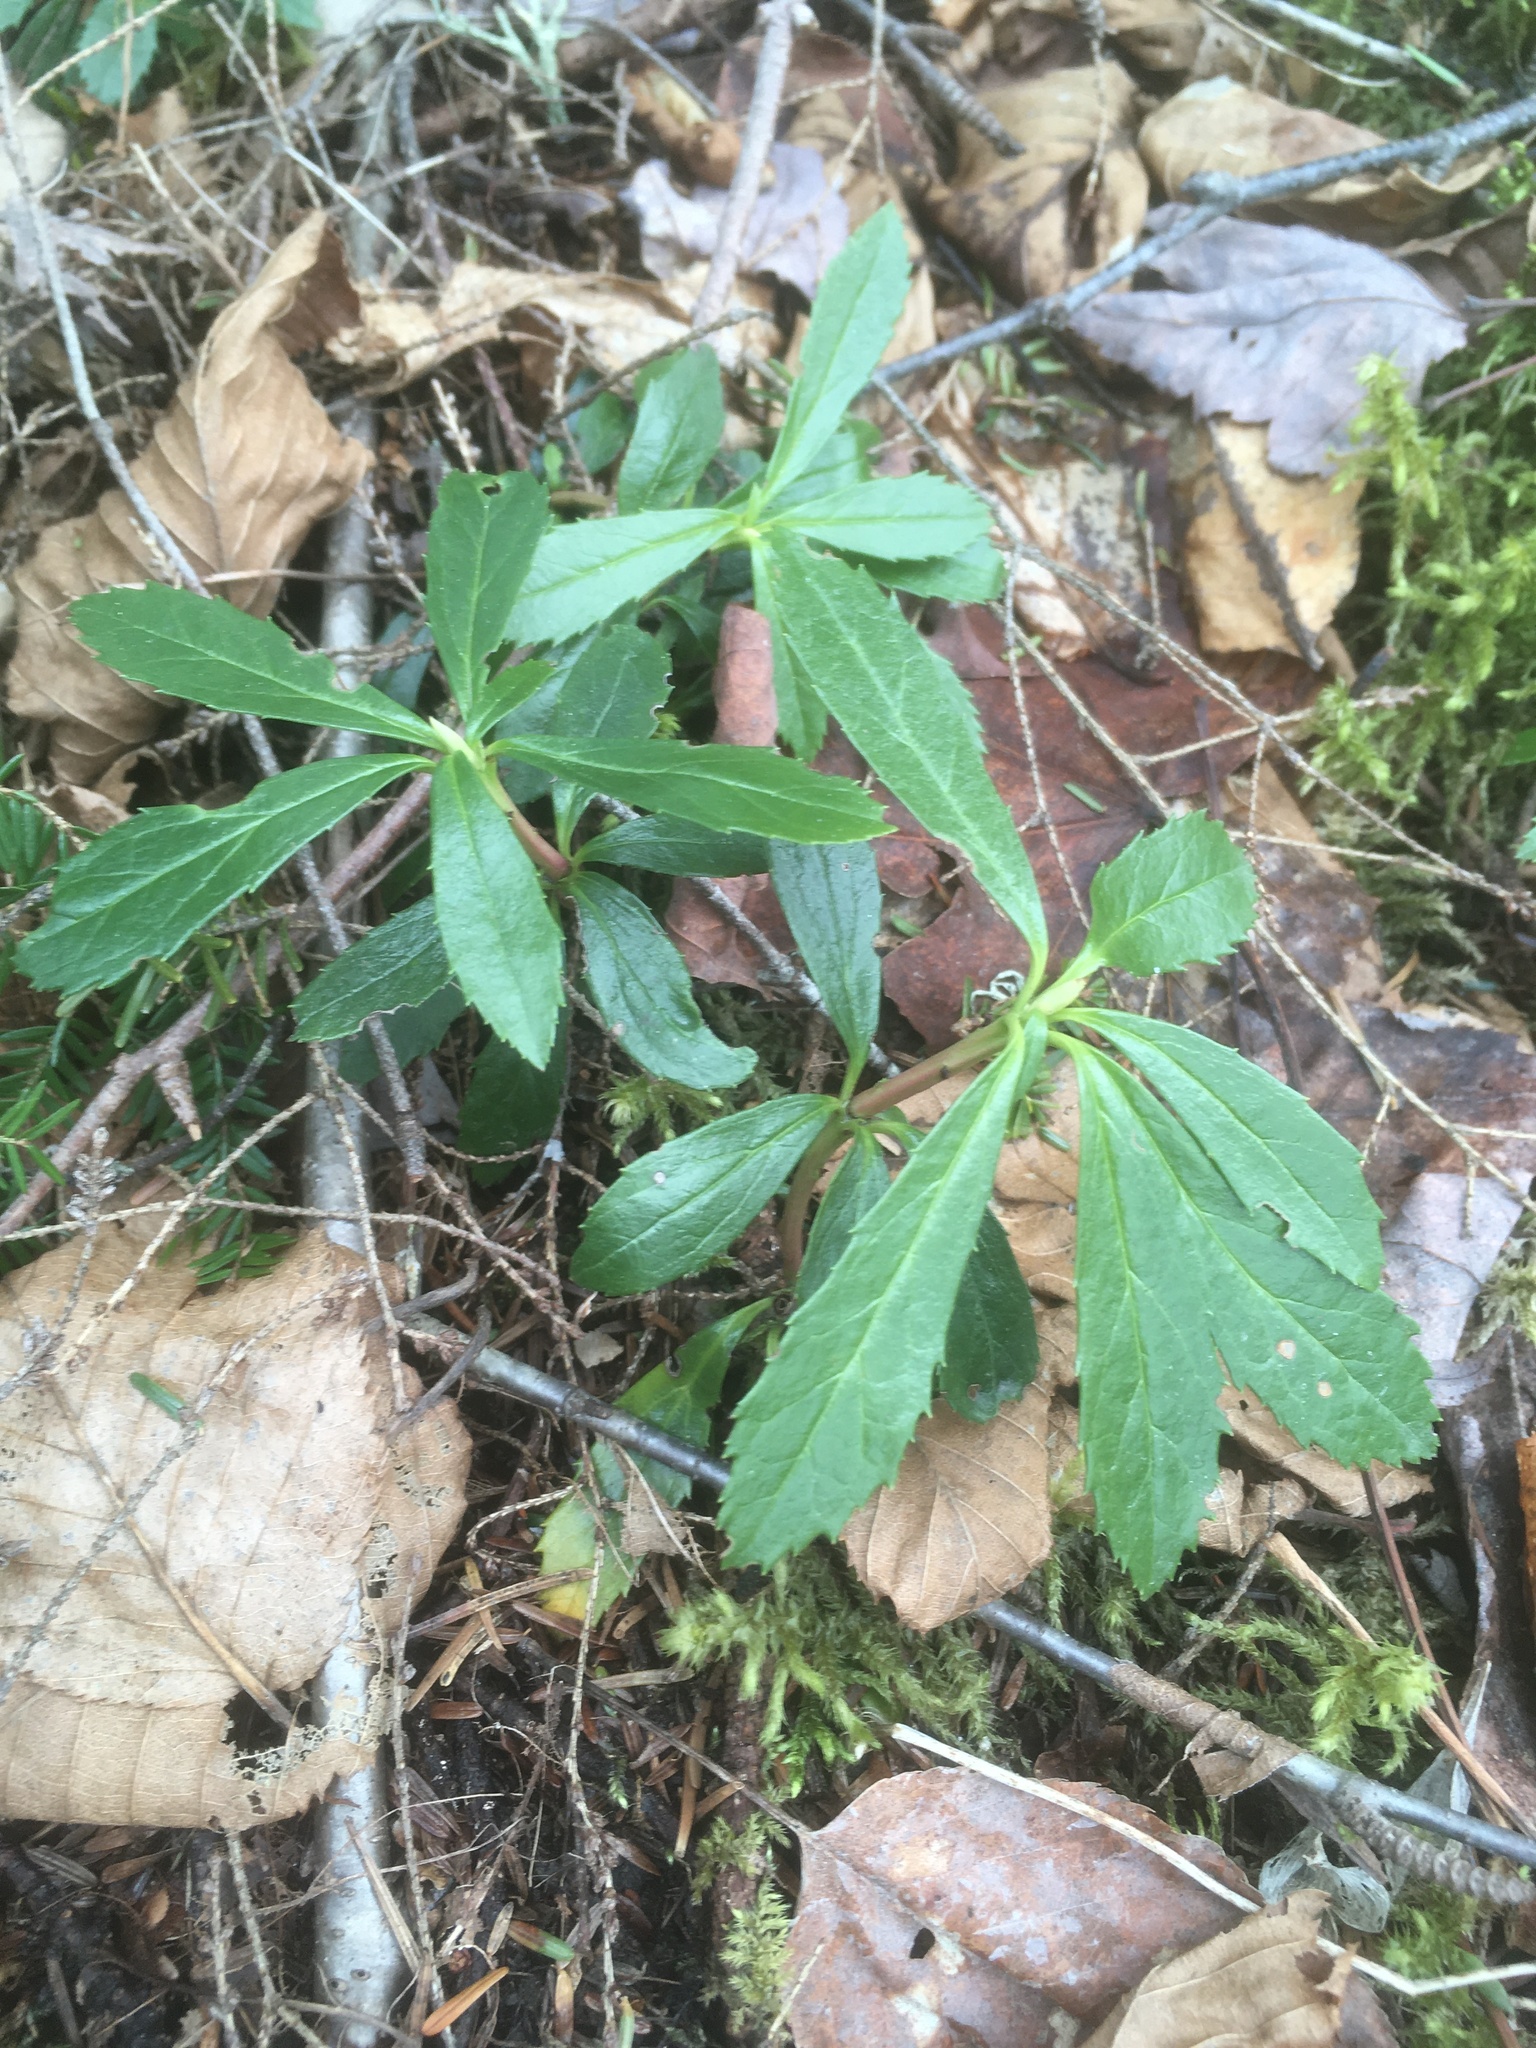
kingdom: Plantae
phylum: Tracheophyta
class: Magnoliopsida
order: Ericales
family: Ericaceae
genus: Chimaphila
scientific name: Chimaphila umbellata
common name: Pipsissewa
